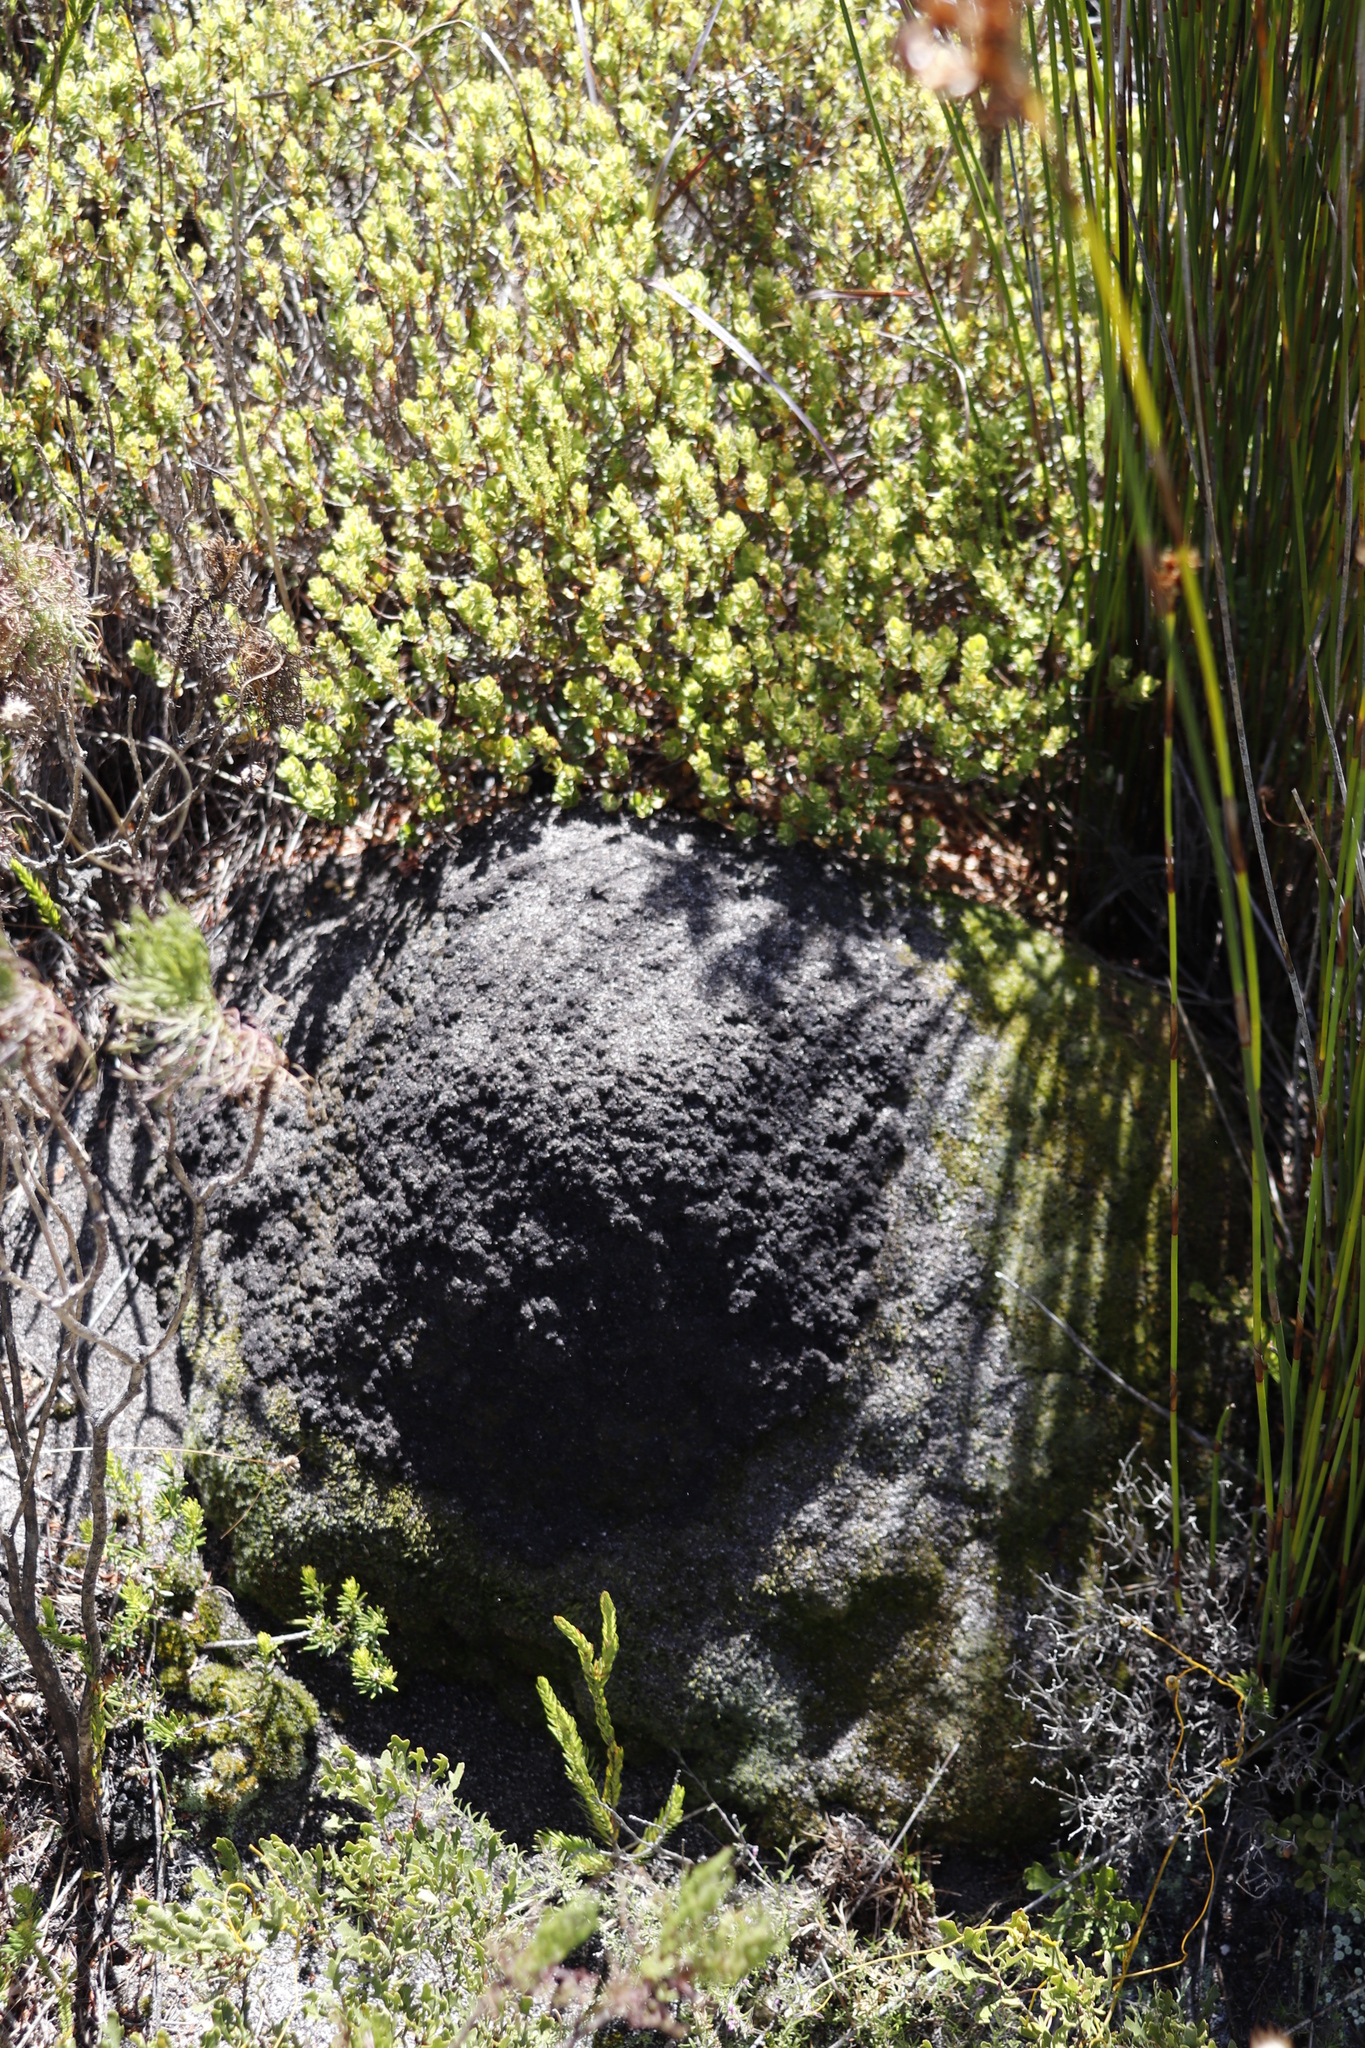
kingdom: Animalia
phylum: Arthropoda
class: Insecta
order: Blattodea
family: Termitidae
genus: Amitermes
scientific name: Amitermes hastatus
